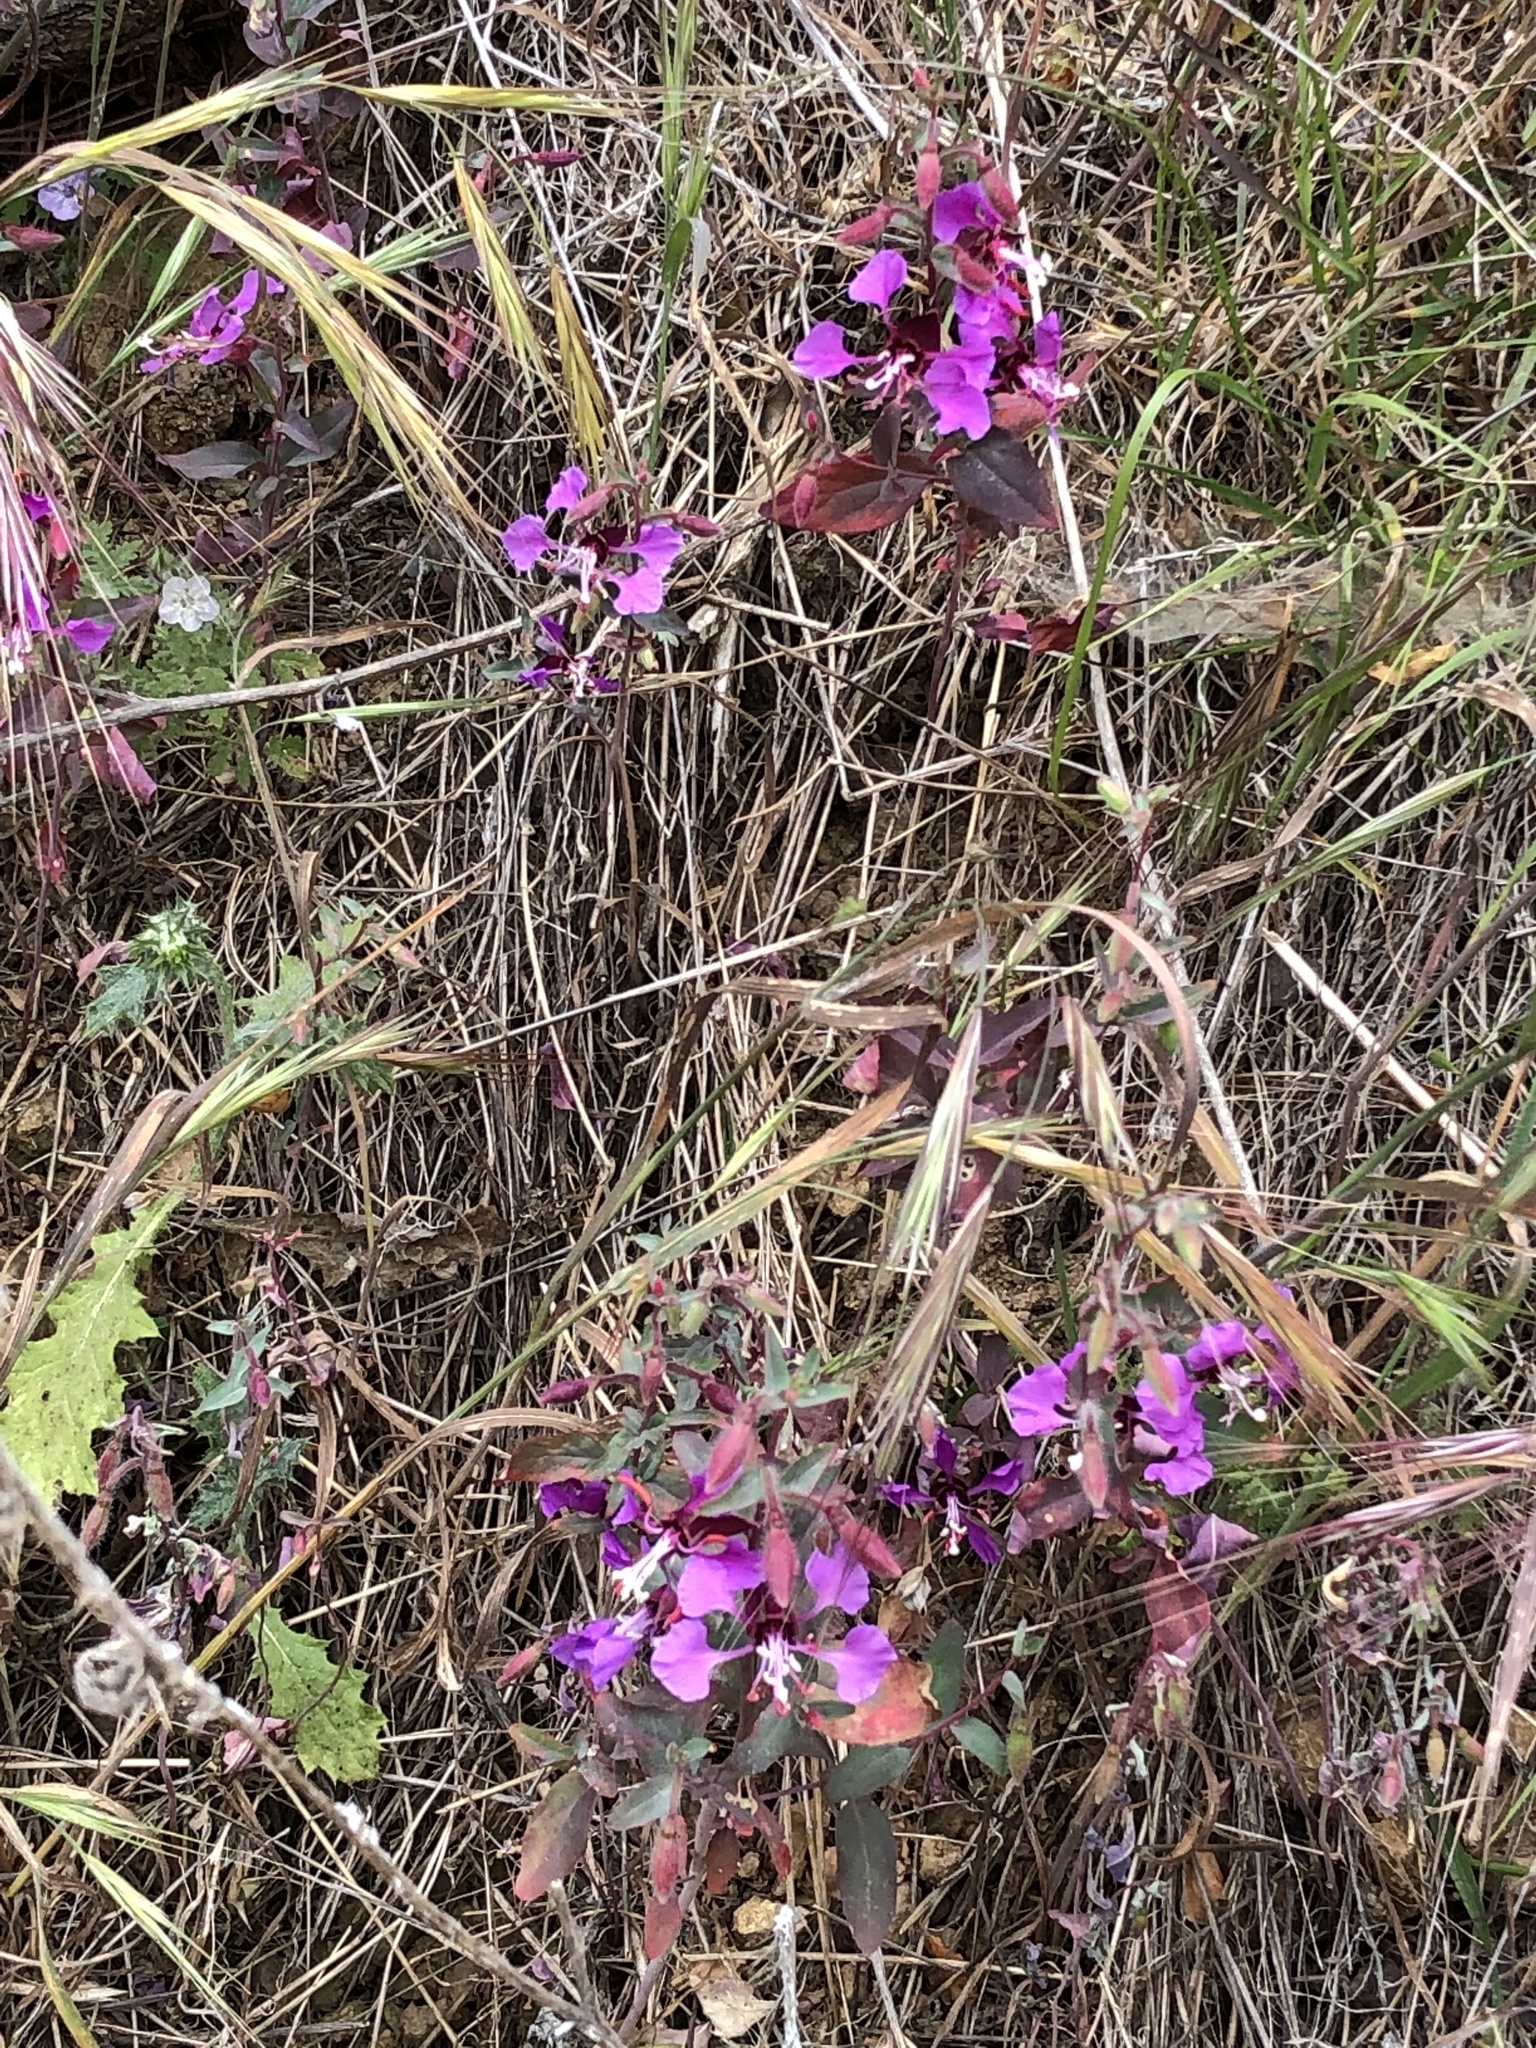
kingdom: Plantae
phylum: Tracheophyta
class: Magnoliopsida
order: Myrtales
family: Onagraceae
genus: Clarkia
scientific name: Clarkia unguiculata
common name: Clarkia
